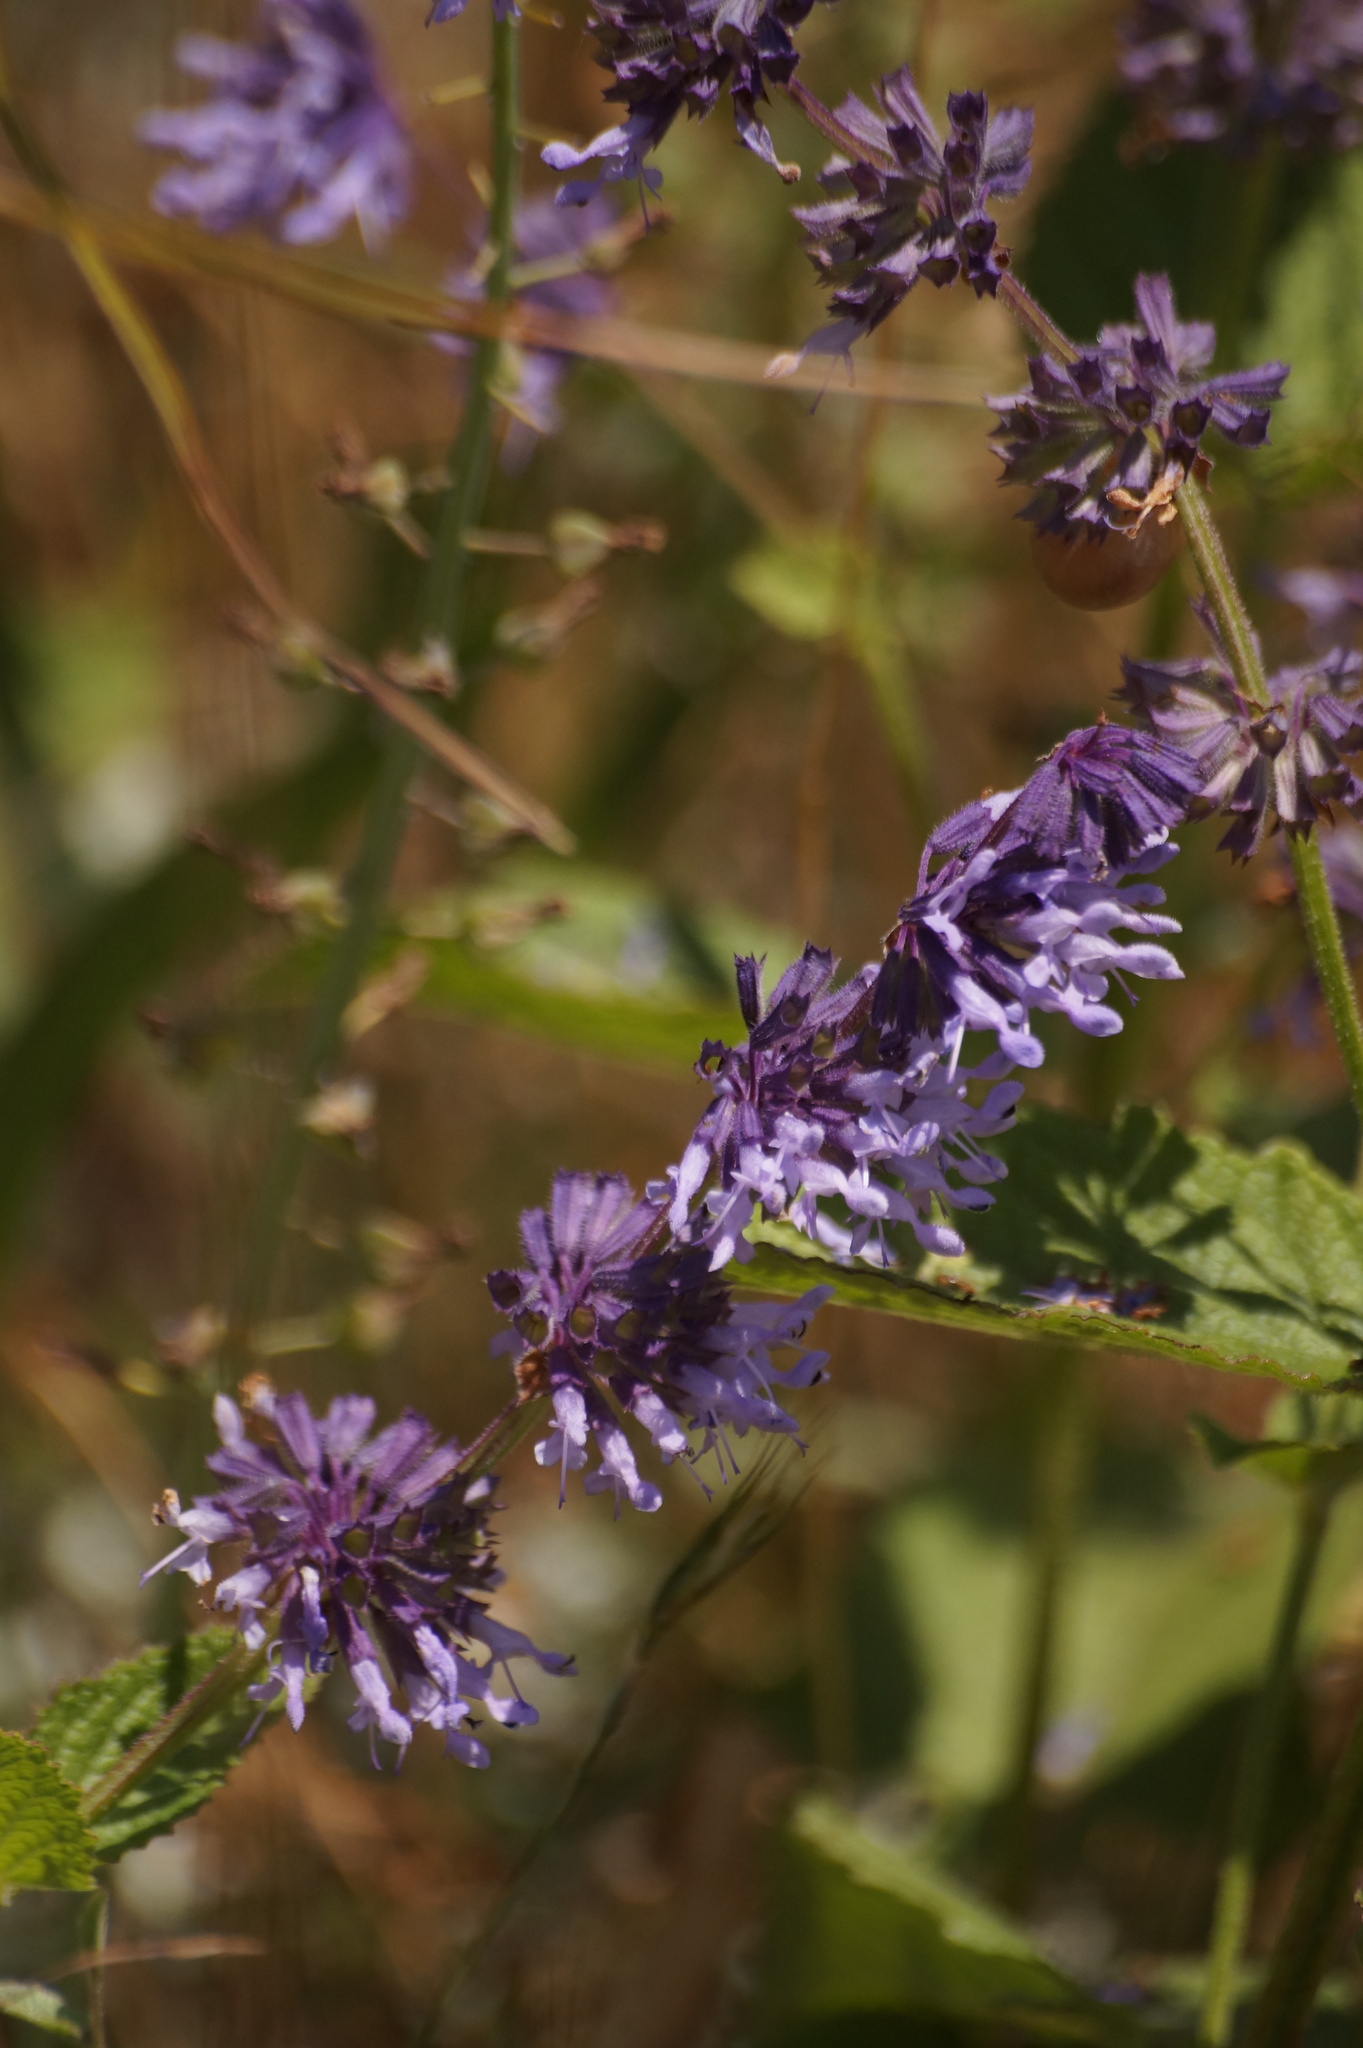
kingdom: Plantae
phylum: Tracheophyta
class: Magnoliopsida
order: Lamiales
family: Lamiaceae
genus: Salvia
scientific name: Salvia verticillata
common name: Whorled clary
